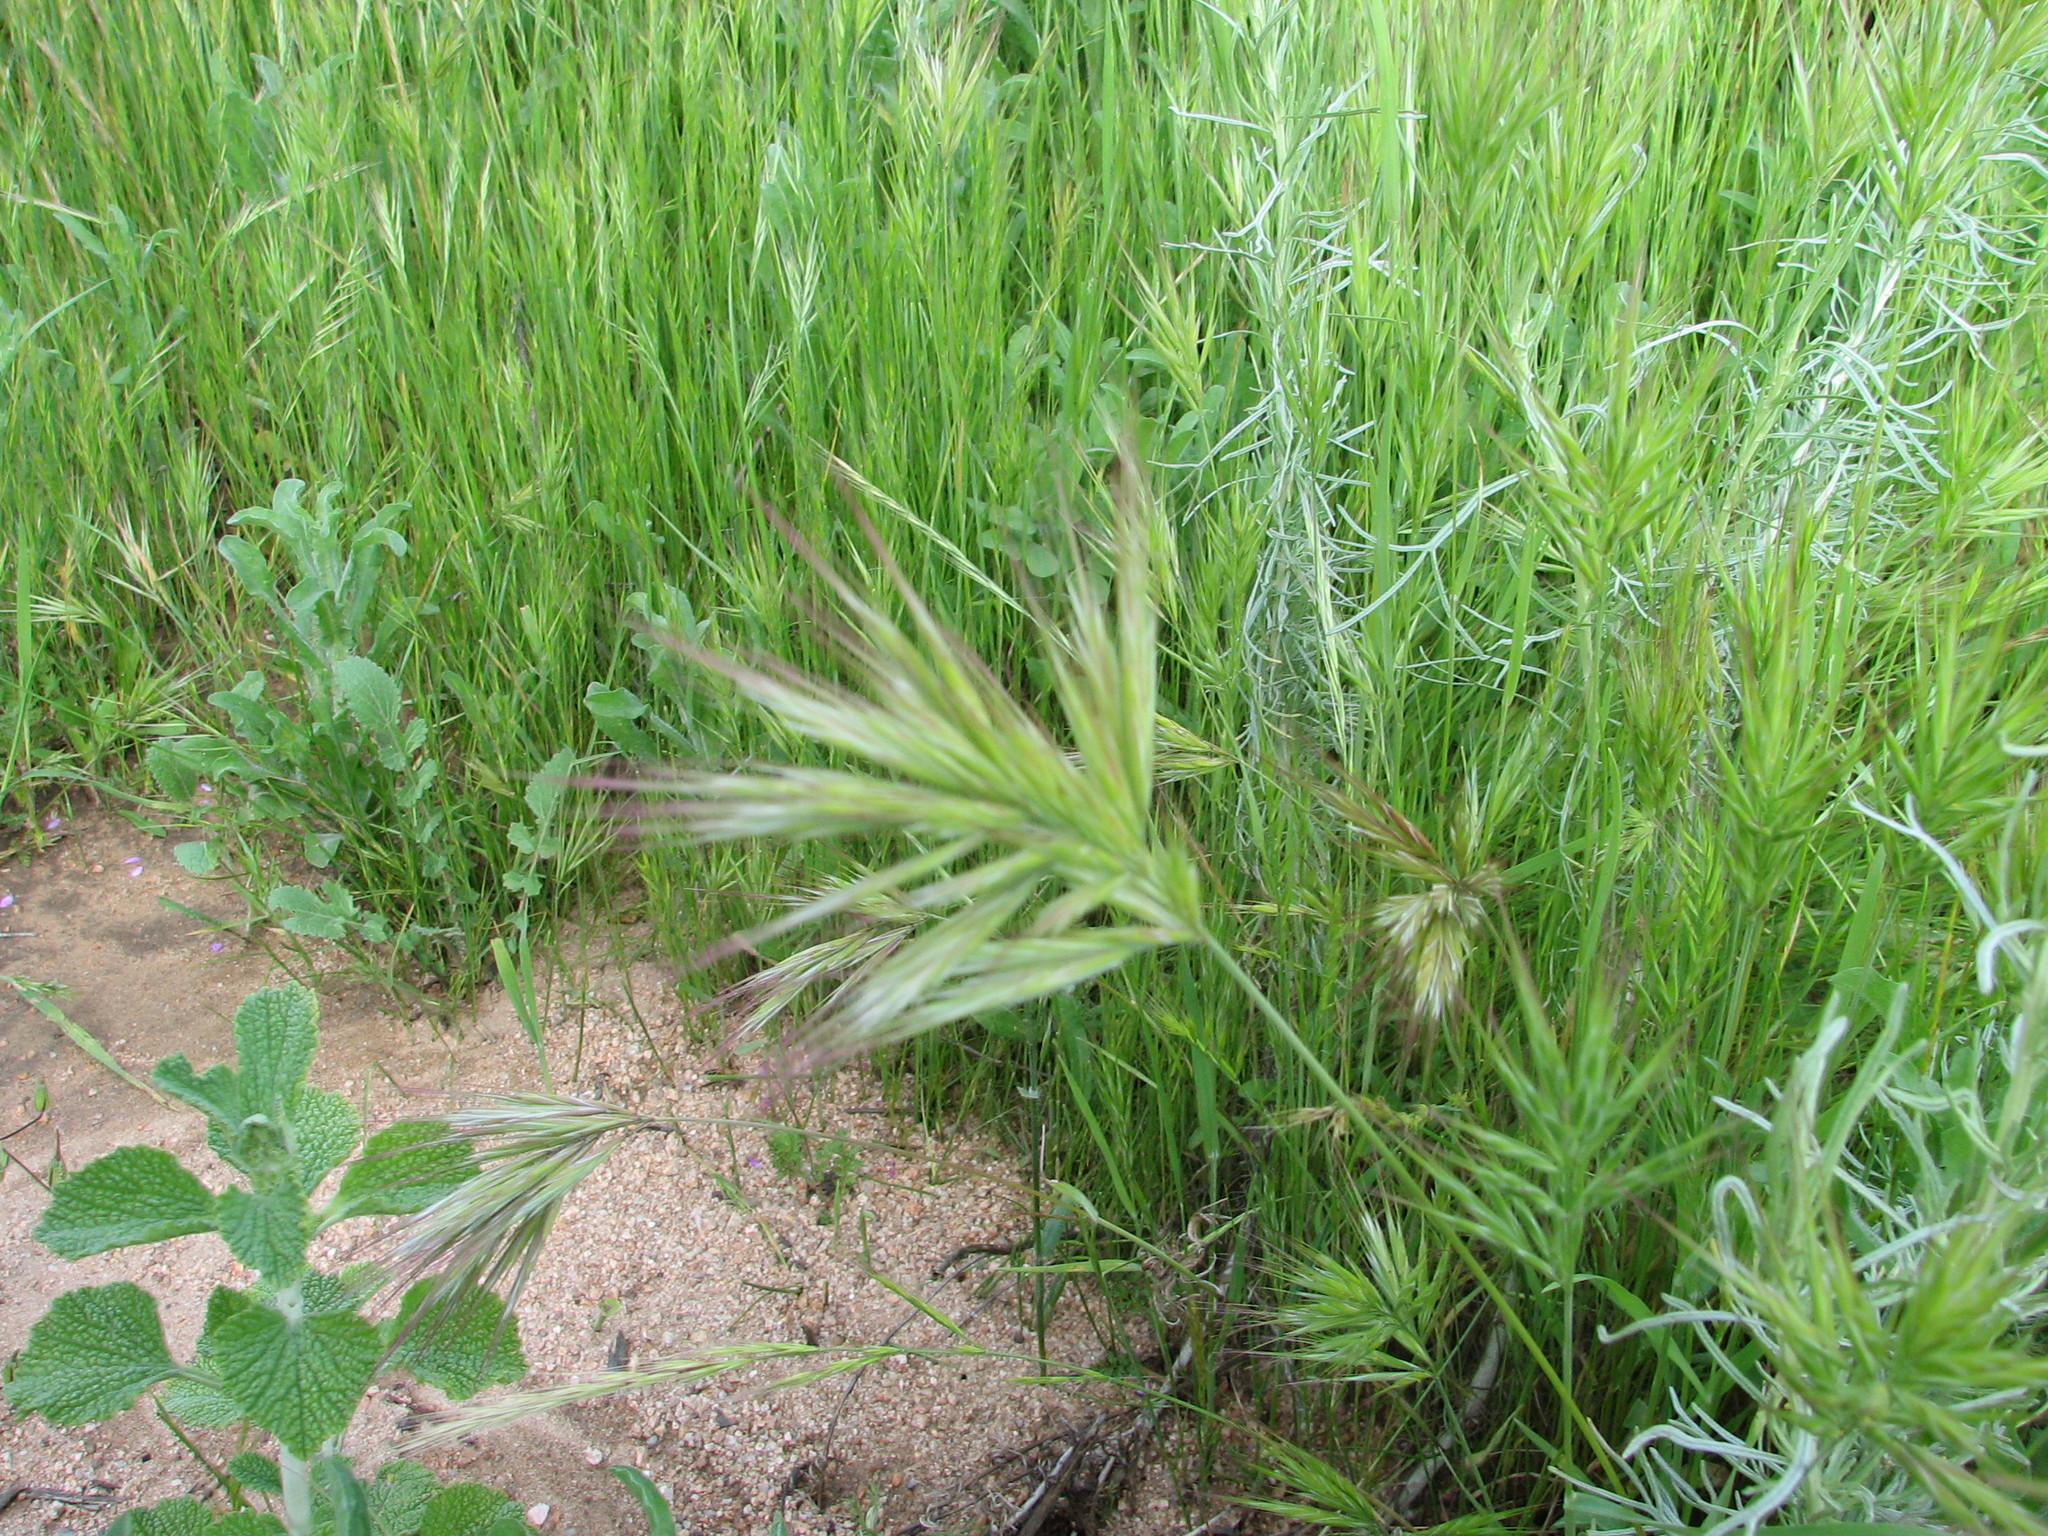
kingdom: Plantae
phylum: Tracheophyta
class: Liliopsida
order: Poales
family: Poaceae
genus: Bromus
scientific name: Bromus madritensis
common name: Compact brome
